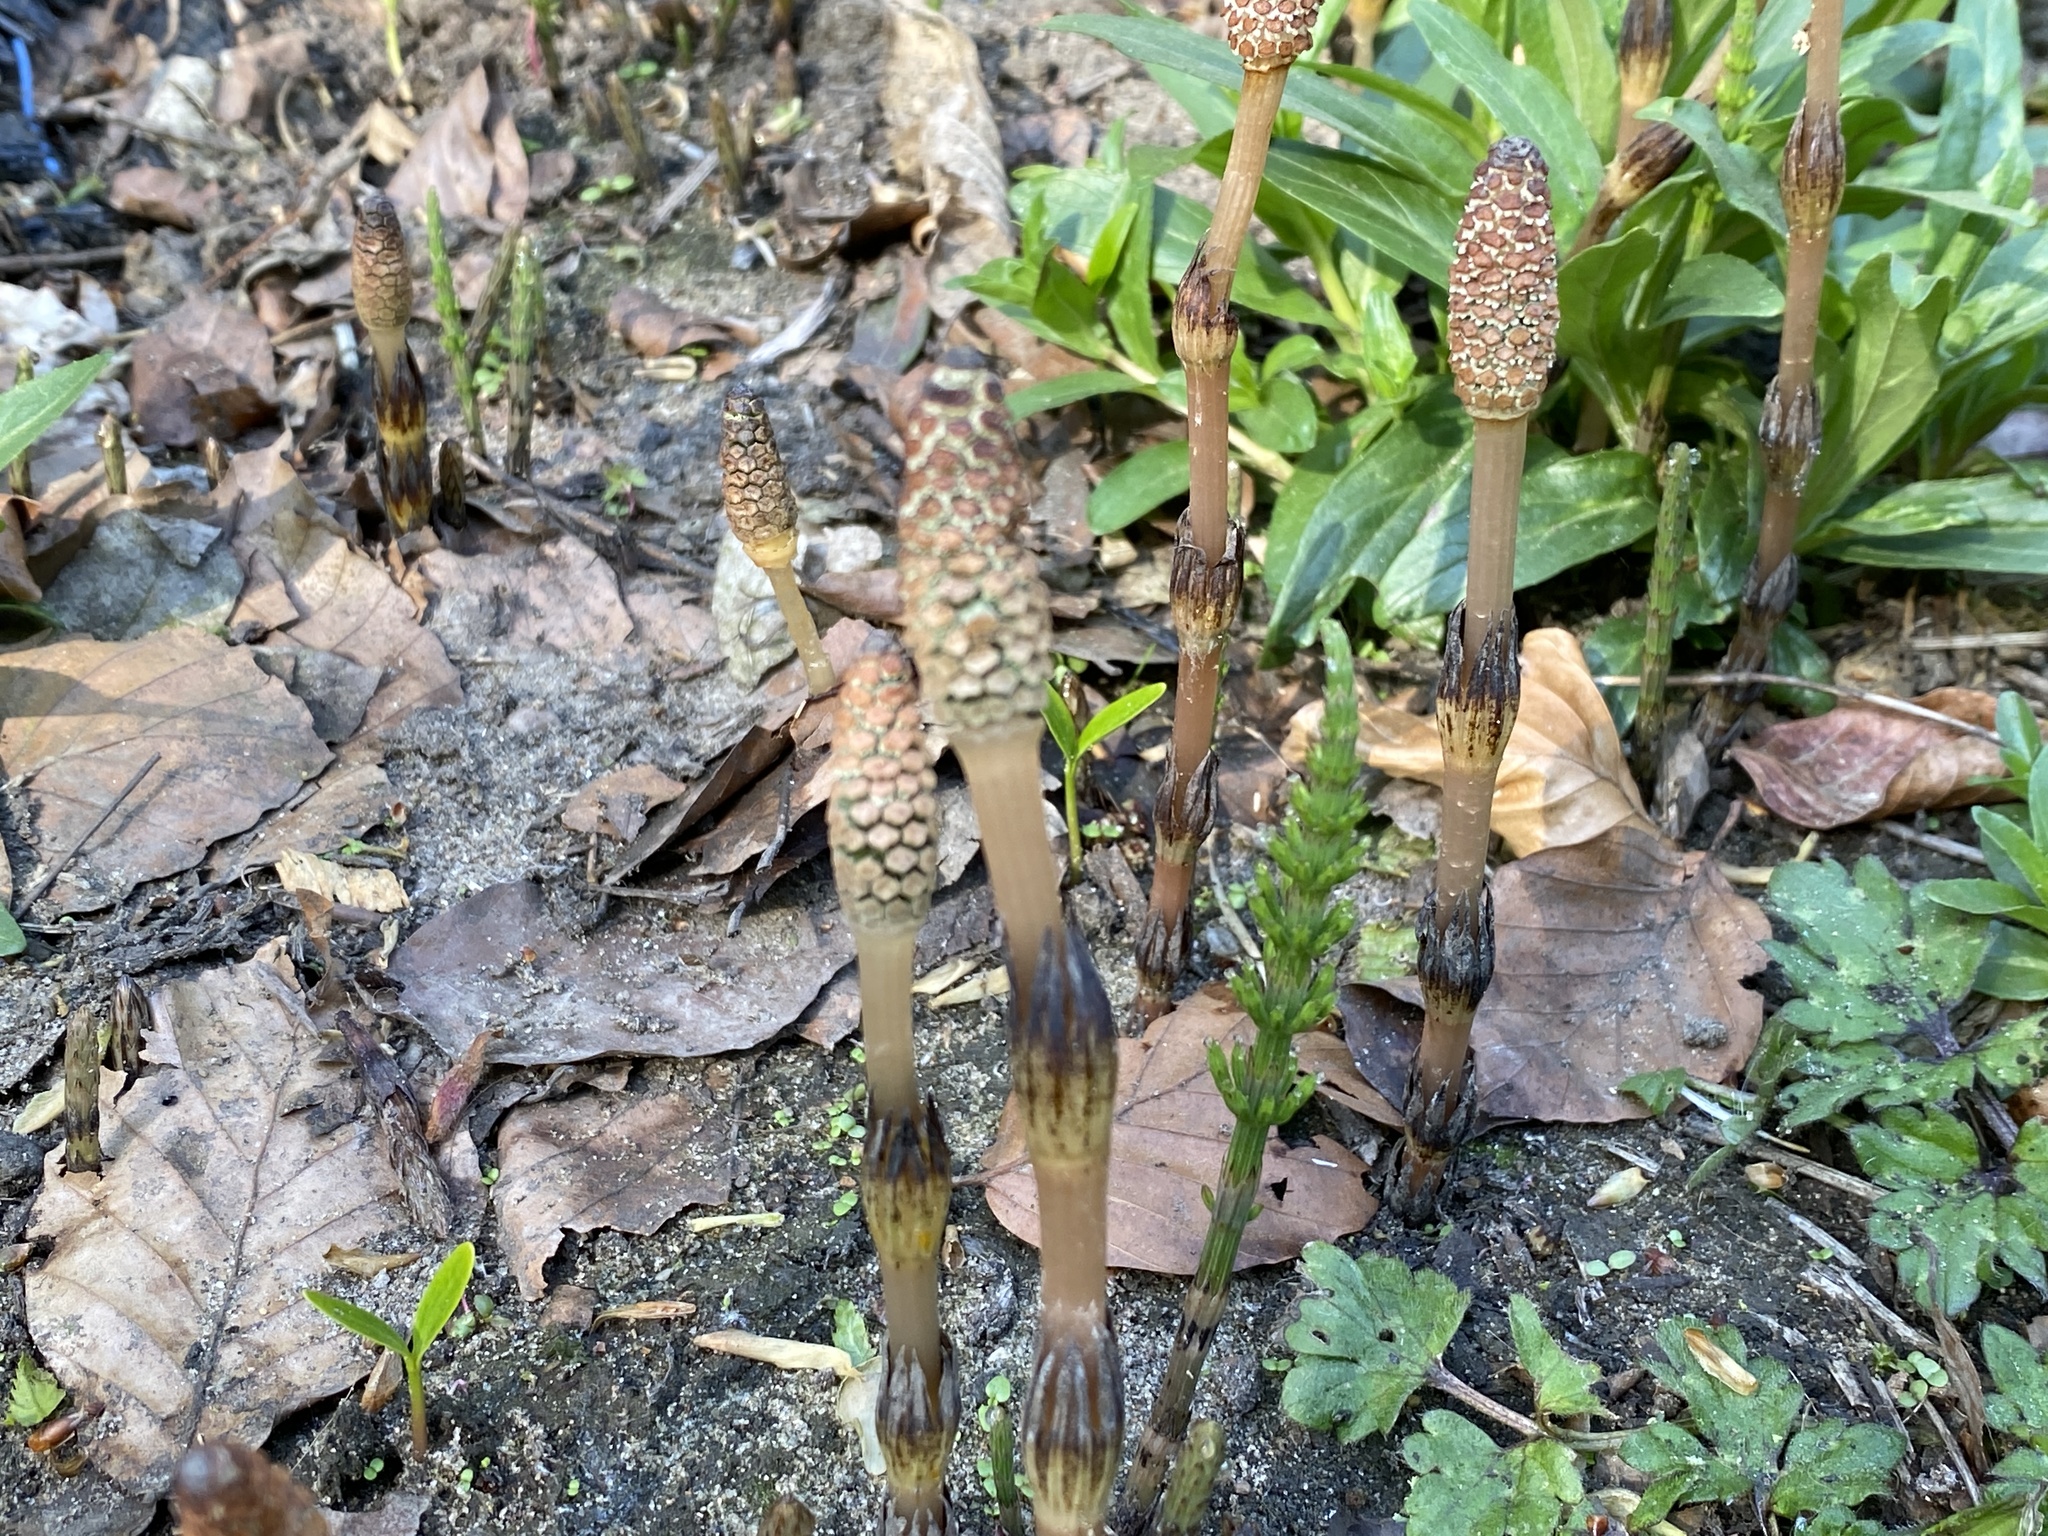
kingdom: Plantae
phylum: Tracheophyta
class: Polypodiopsida
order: Equisetales
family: Equisetaceae
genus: Equisetum
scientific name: Equisetum arvense
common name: Field horsetail
